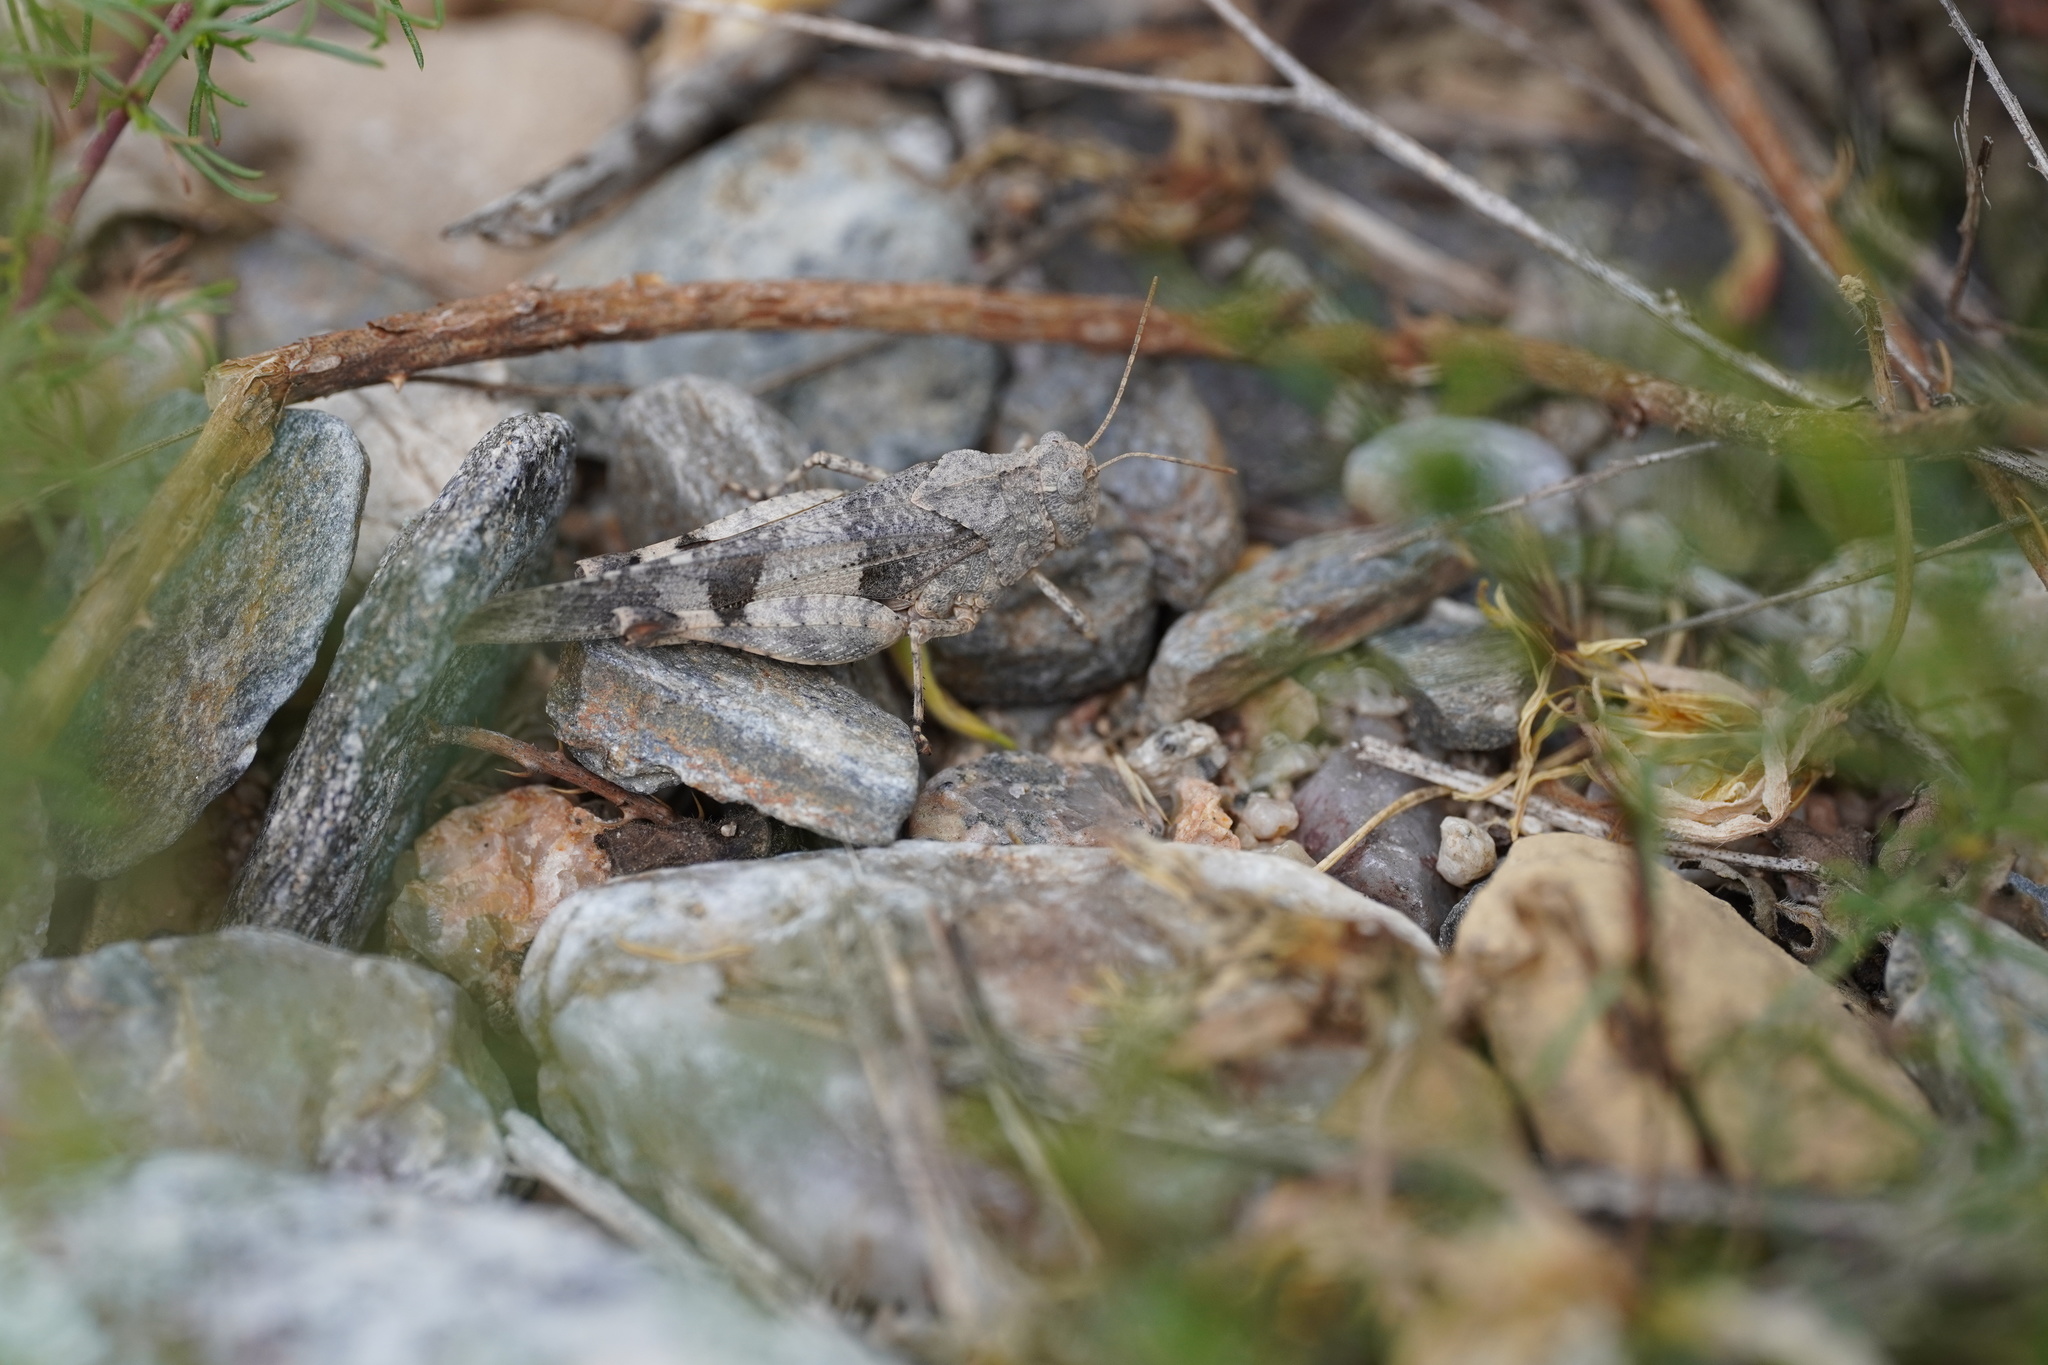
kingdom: Animalia
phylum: Arthropoda
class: Insecta
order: Orthoptera
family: Acrididae
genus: Oedipoda
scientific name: Oedipoda caerulescens
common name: Blue-winged grasshopper
